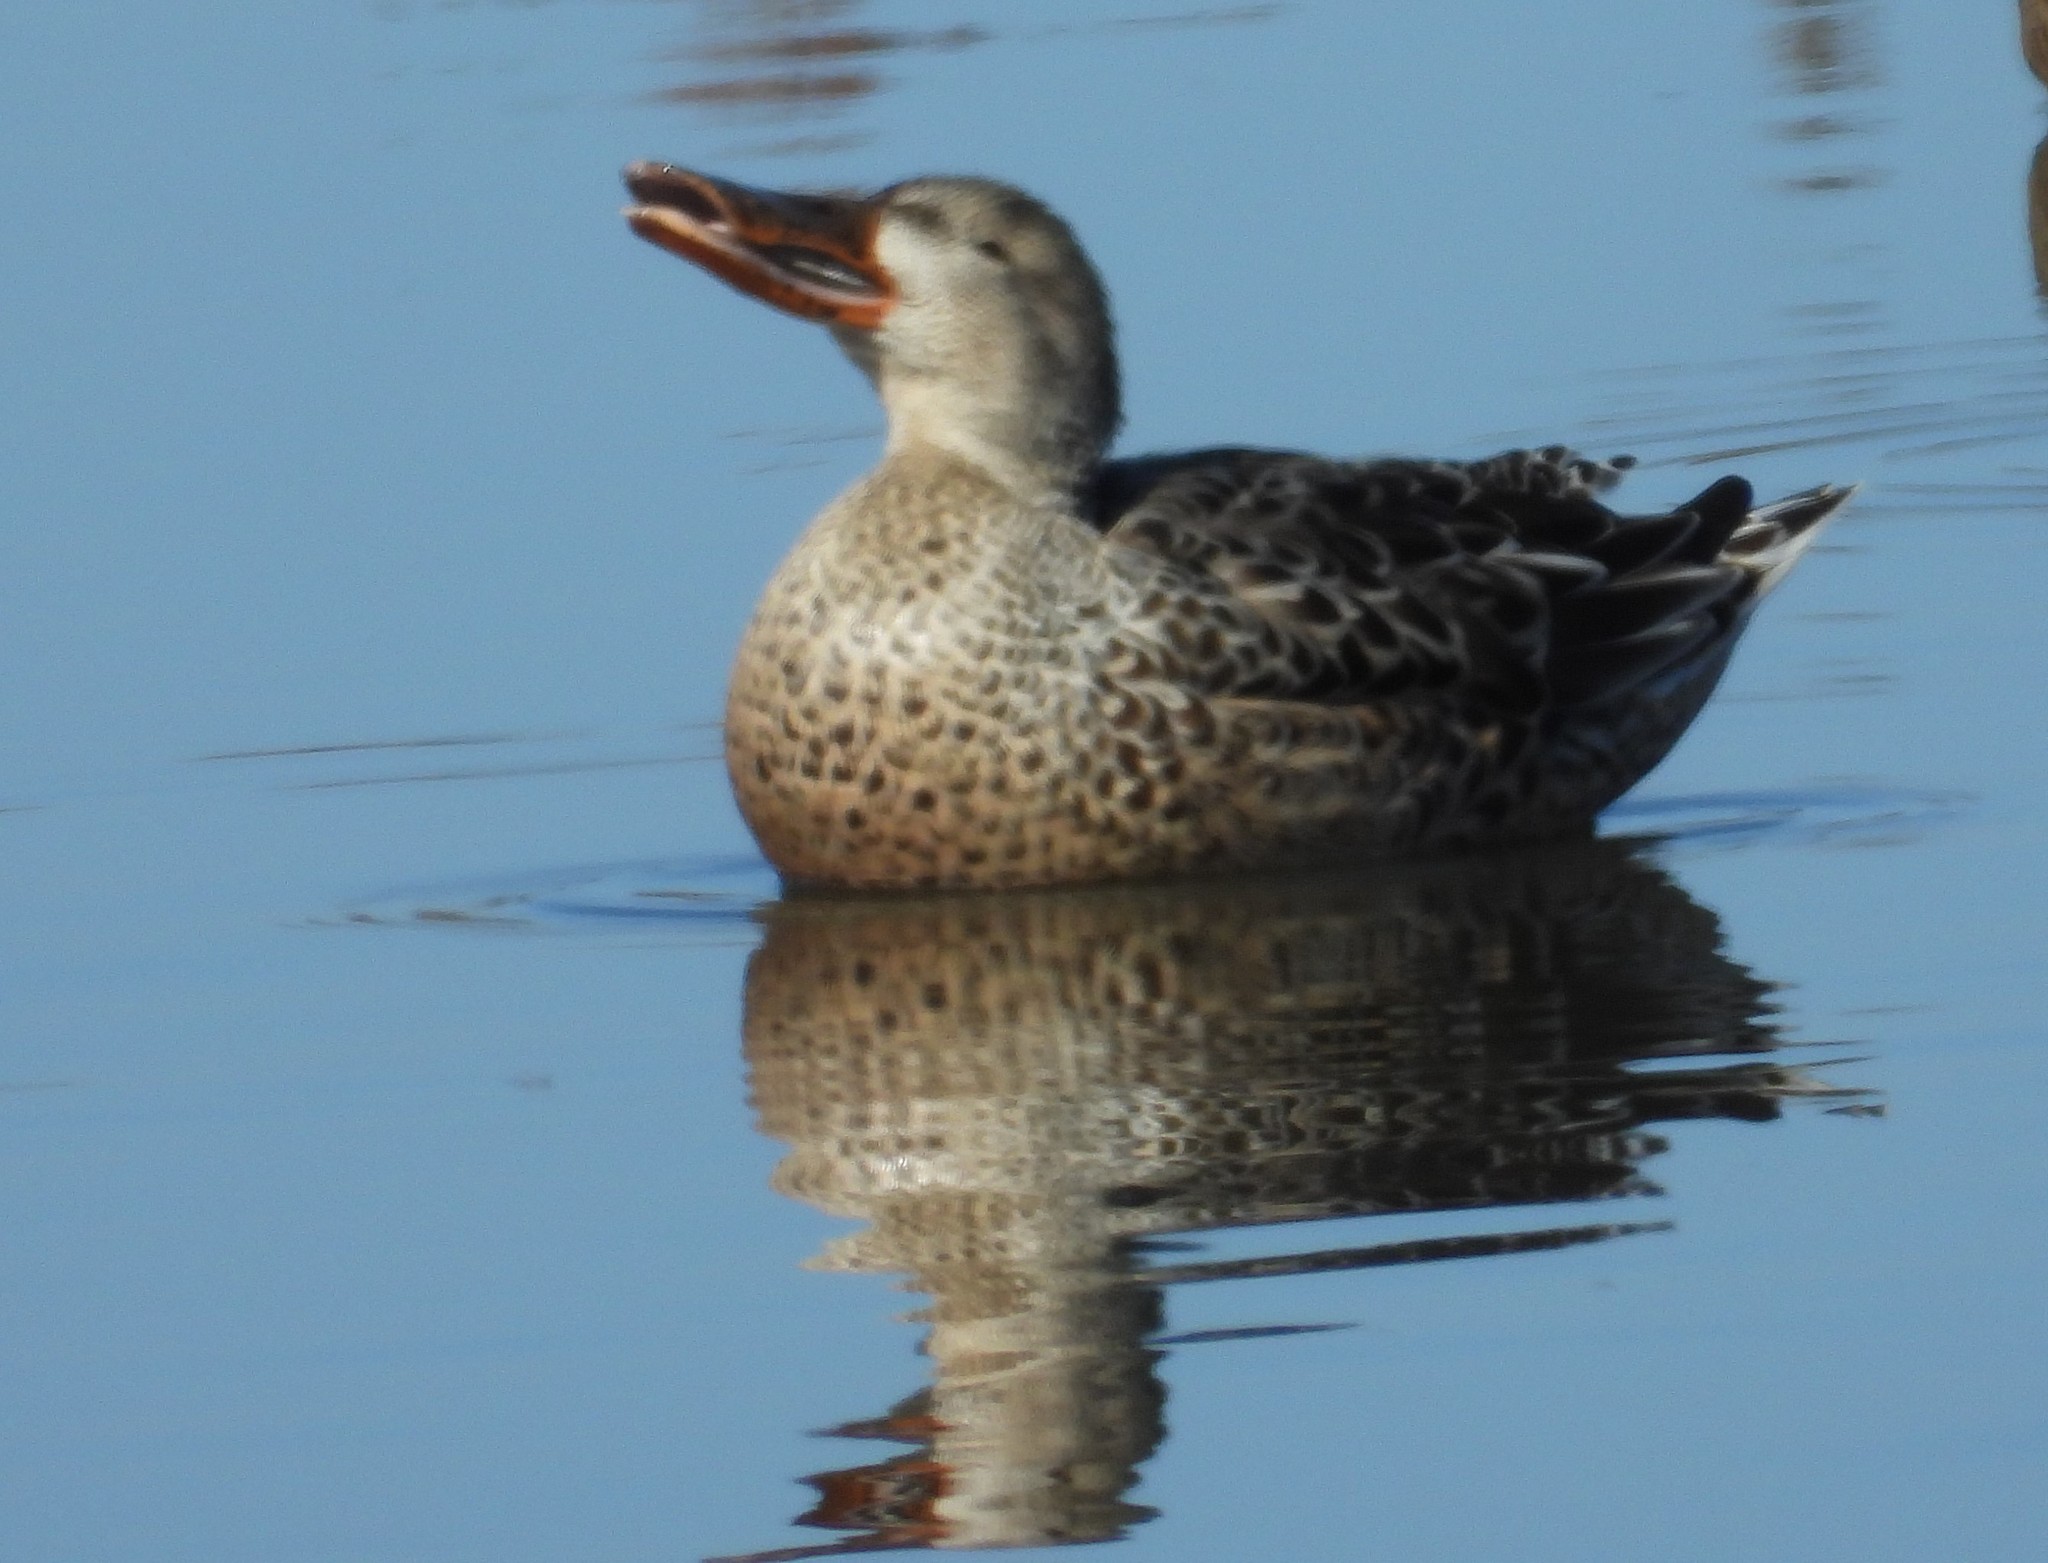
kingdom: Animalia
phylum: Chordata
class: Aves
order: Anseriformes
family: Anatidae
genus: Spatula
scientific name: Spatula clypeata
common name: Northern shoveler
